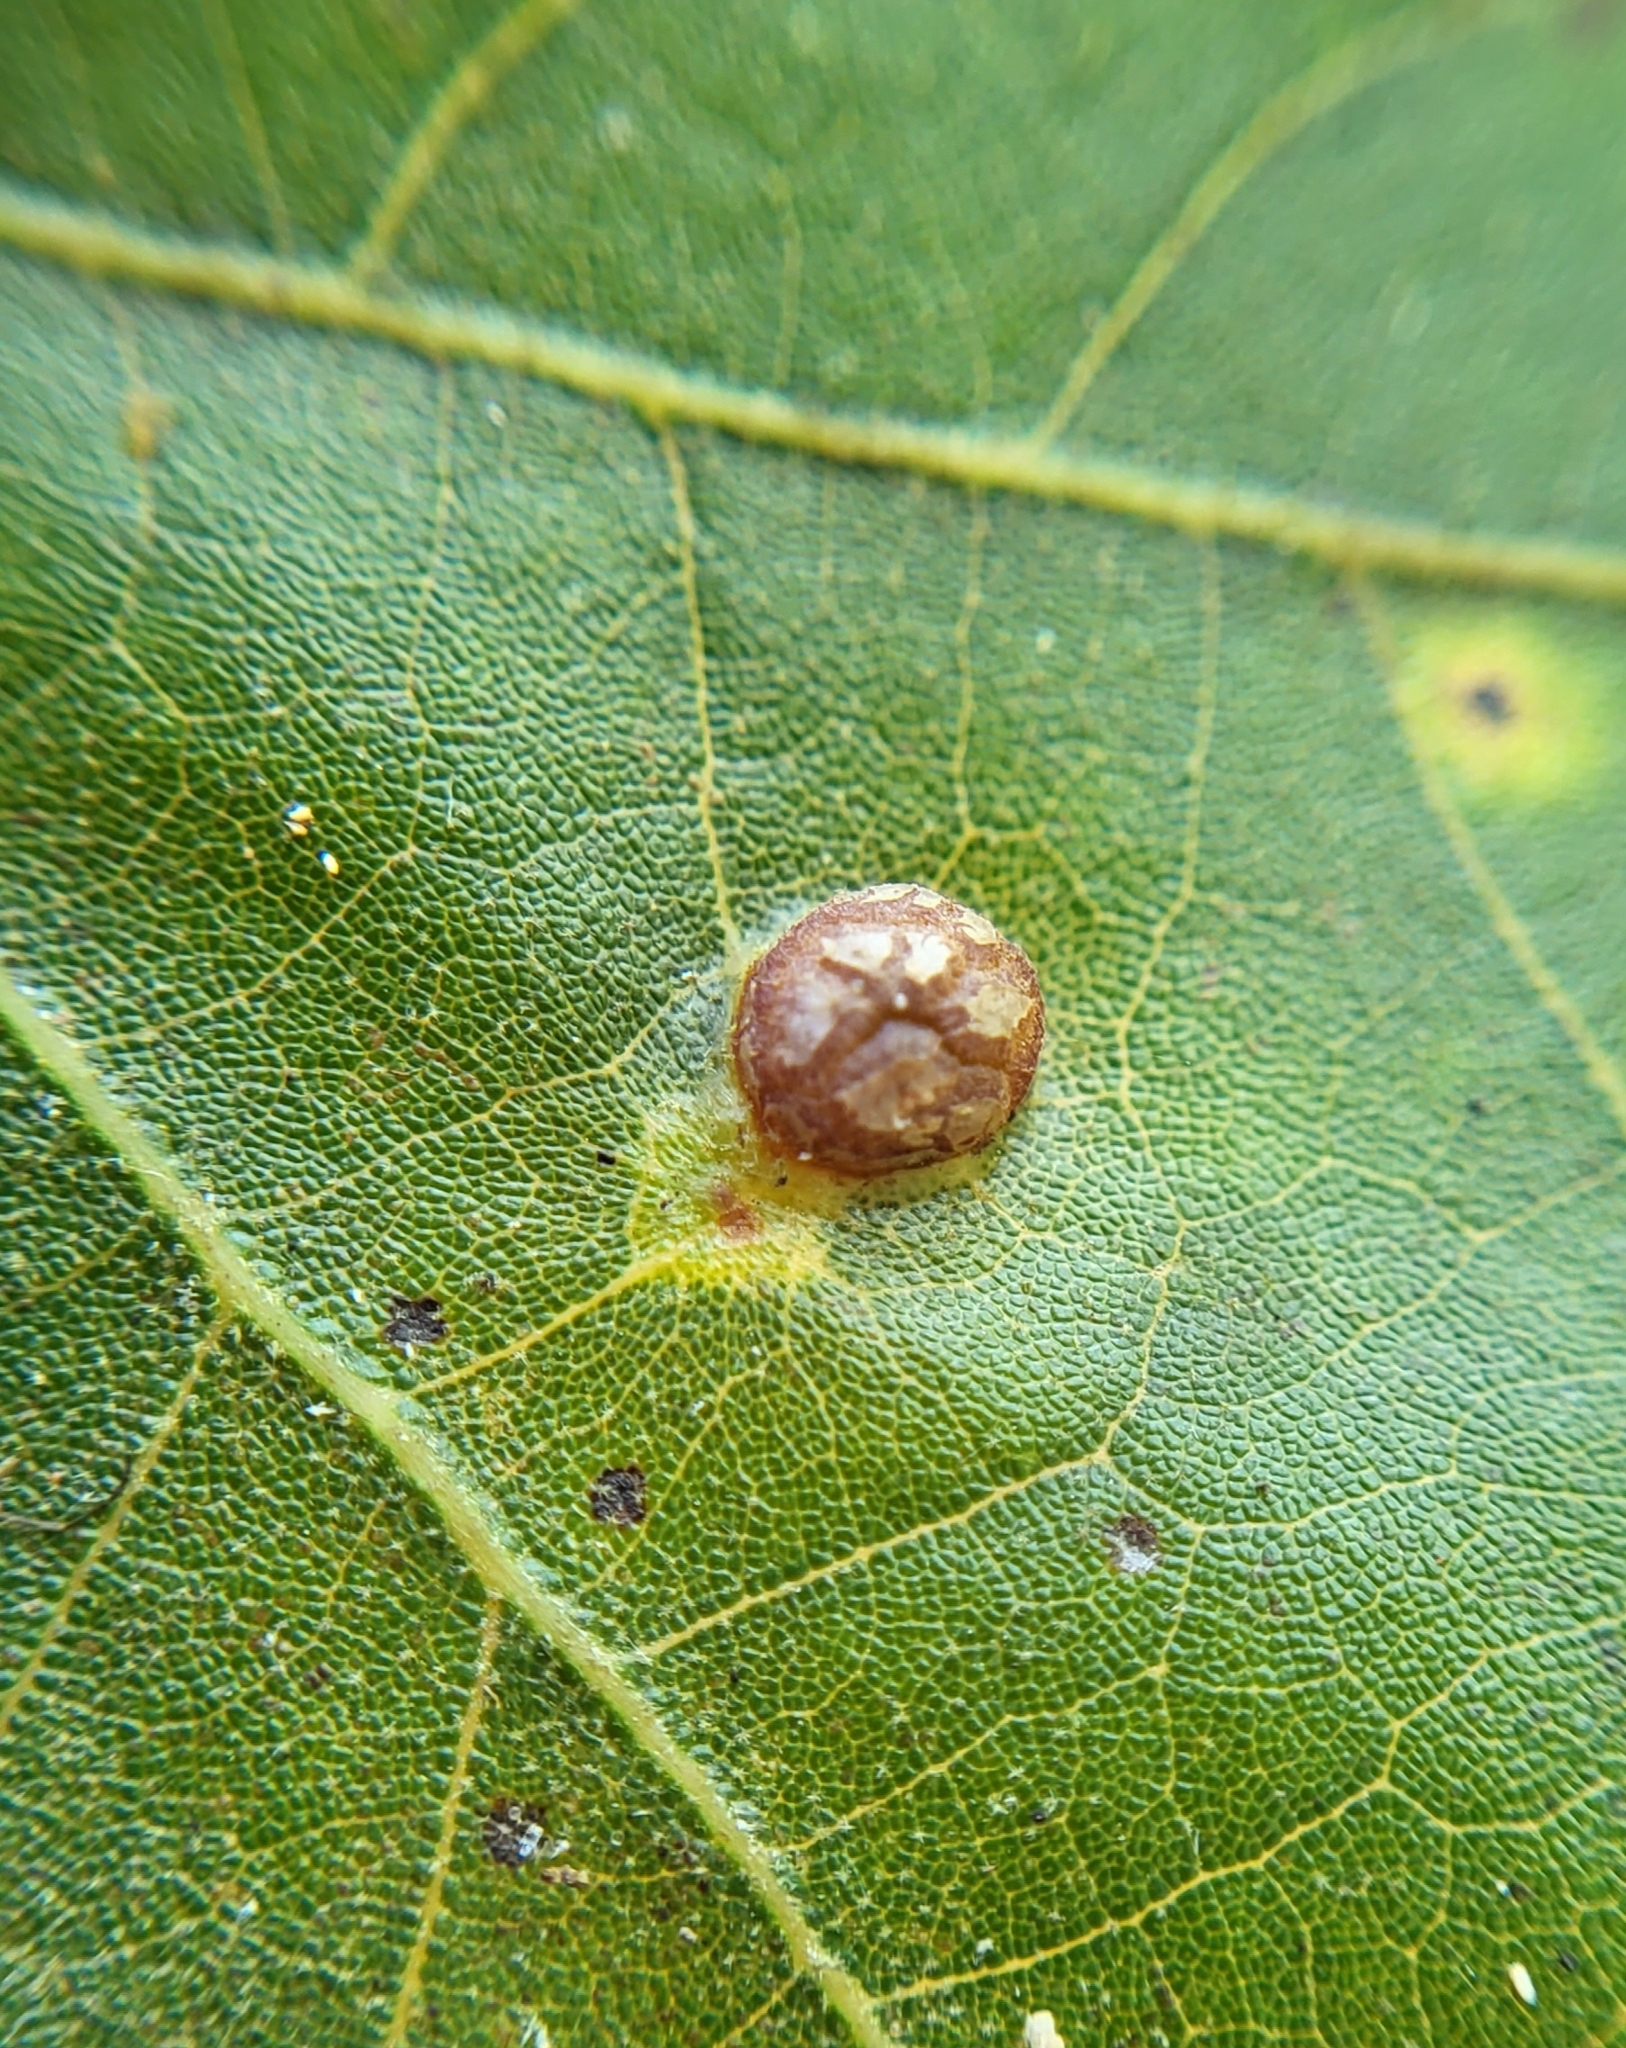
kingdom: Animalia
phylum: Arthropoda
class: Insecta
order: Diptera
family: Cecidomyiidae
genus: Polystepha
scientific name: Polystepha pilulae
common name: Oak leaf gall midge
